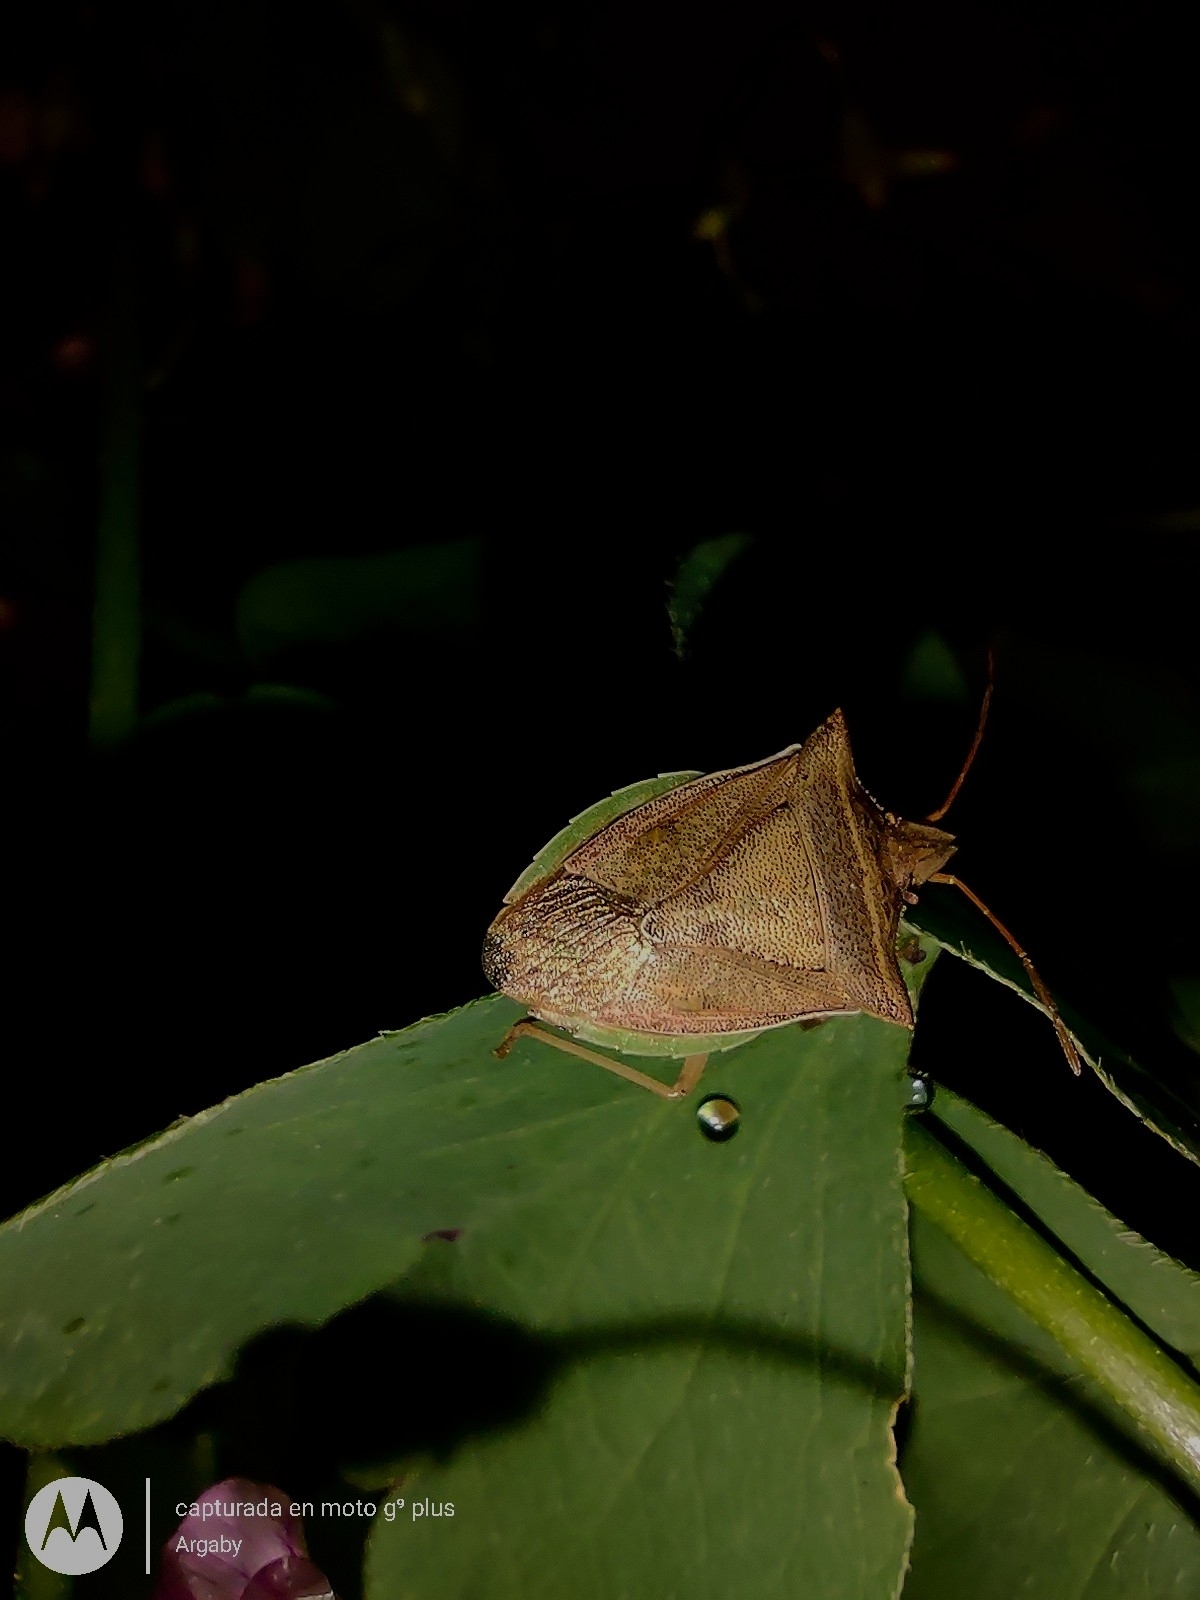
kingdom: Animalia
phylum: Arthropoda
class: Insecta
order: Hemiptera
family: Pentatomidae
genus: Diceraeus
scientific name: Diceraeus furcatus
